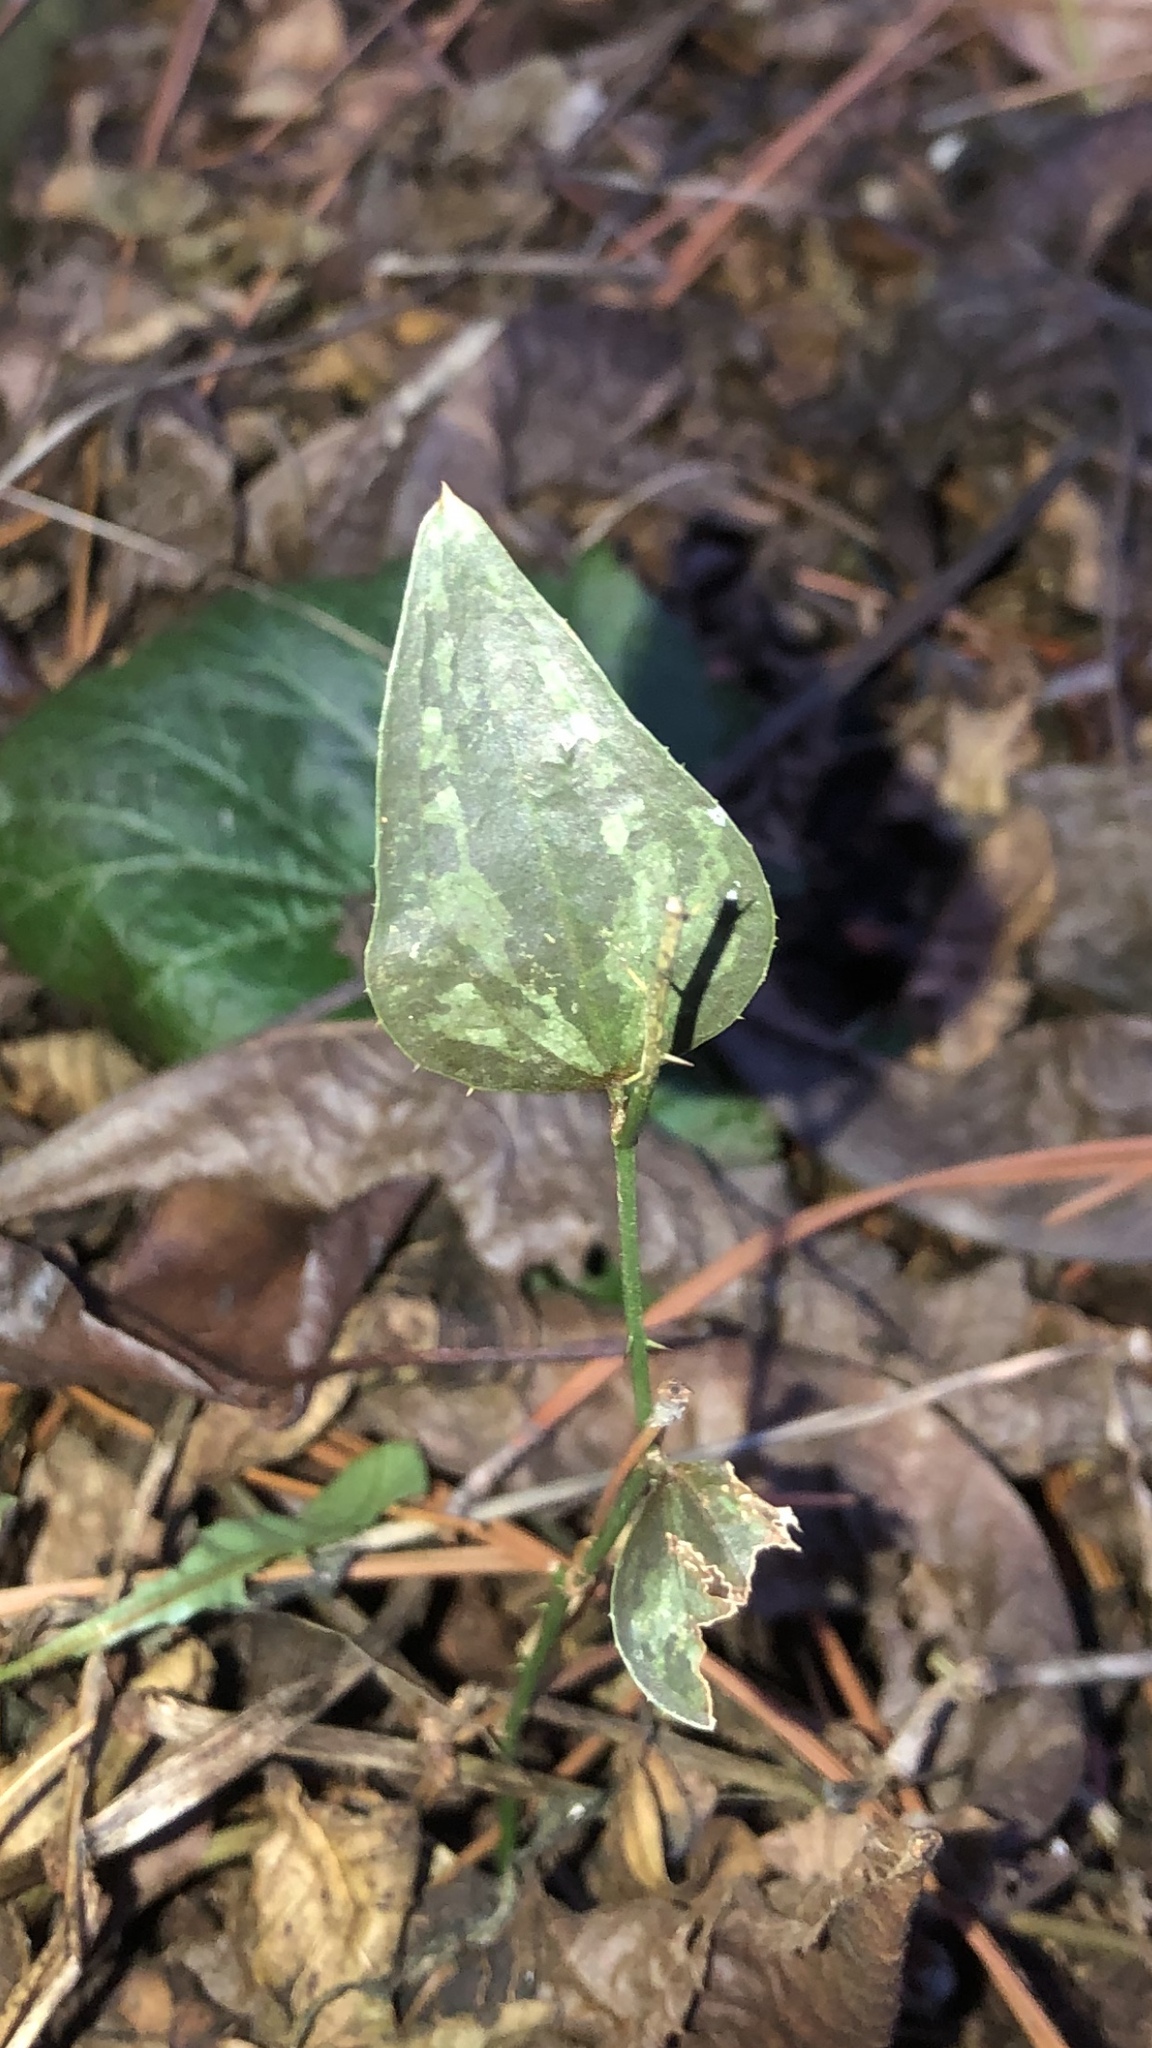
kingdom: Plantae
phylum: Tracheophyta
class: Liliopsida
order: Liliales
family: Smilacaceae
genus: Smilax
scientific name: Smilax bona-nox
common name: Catbrier
